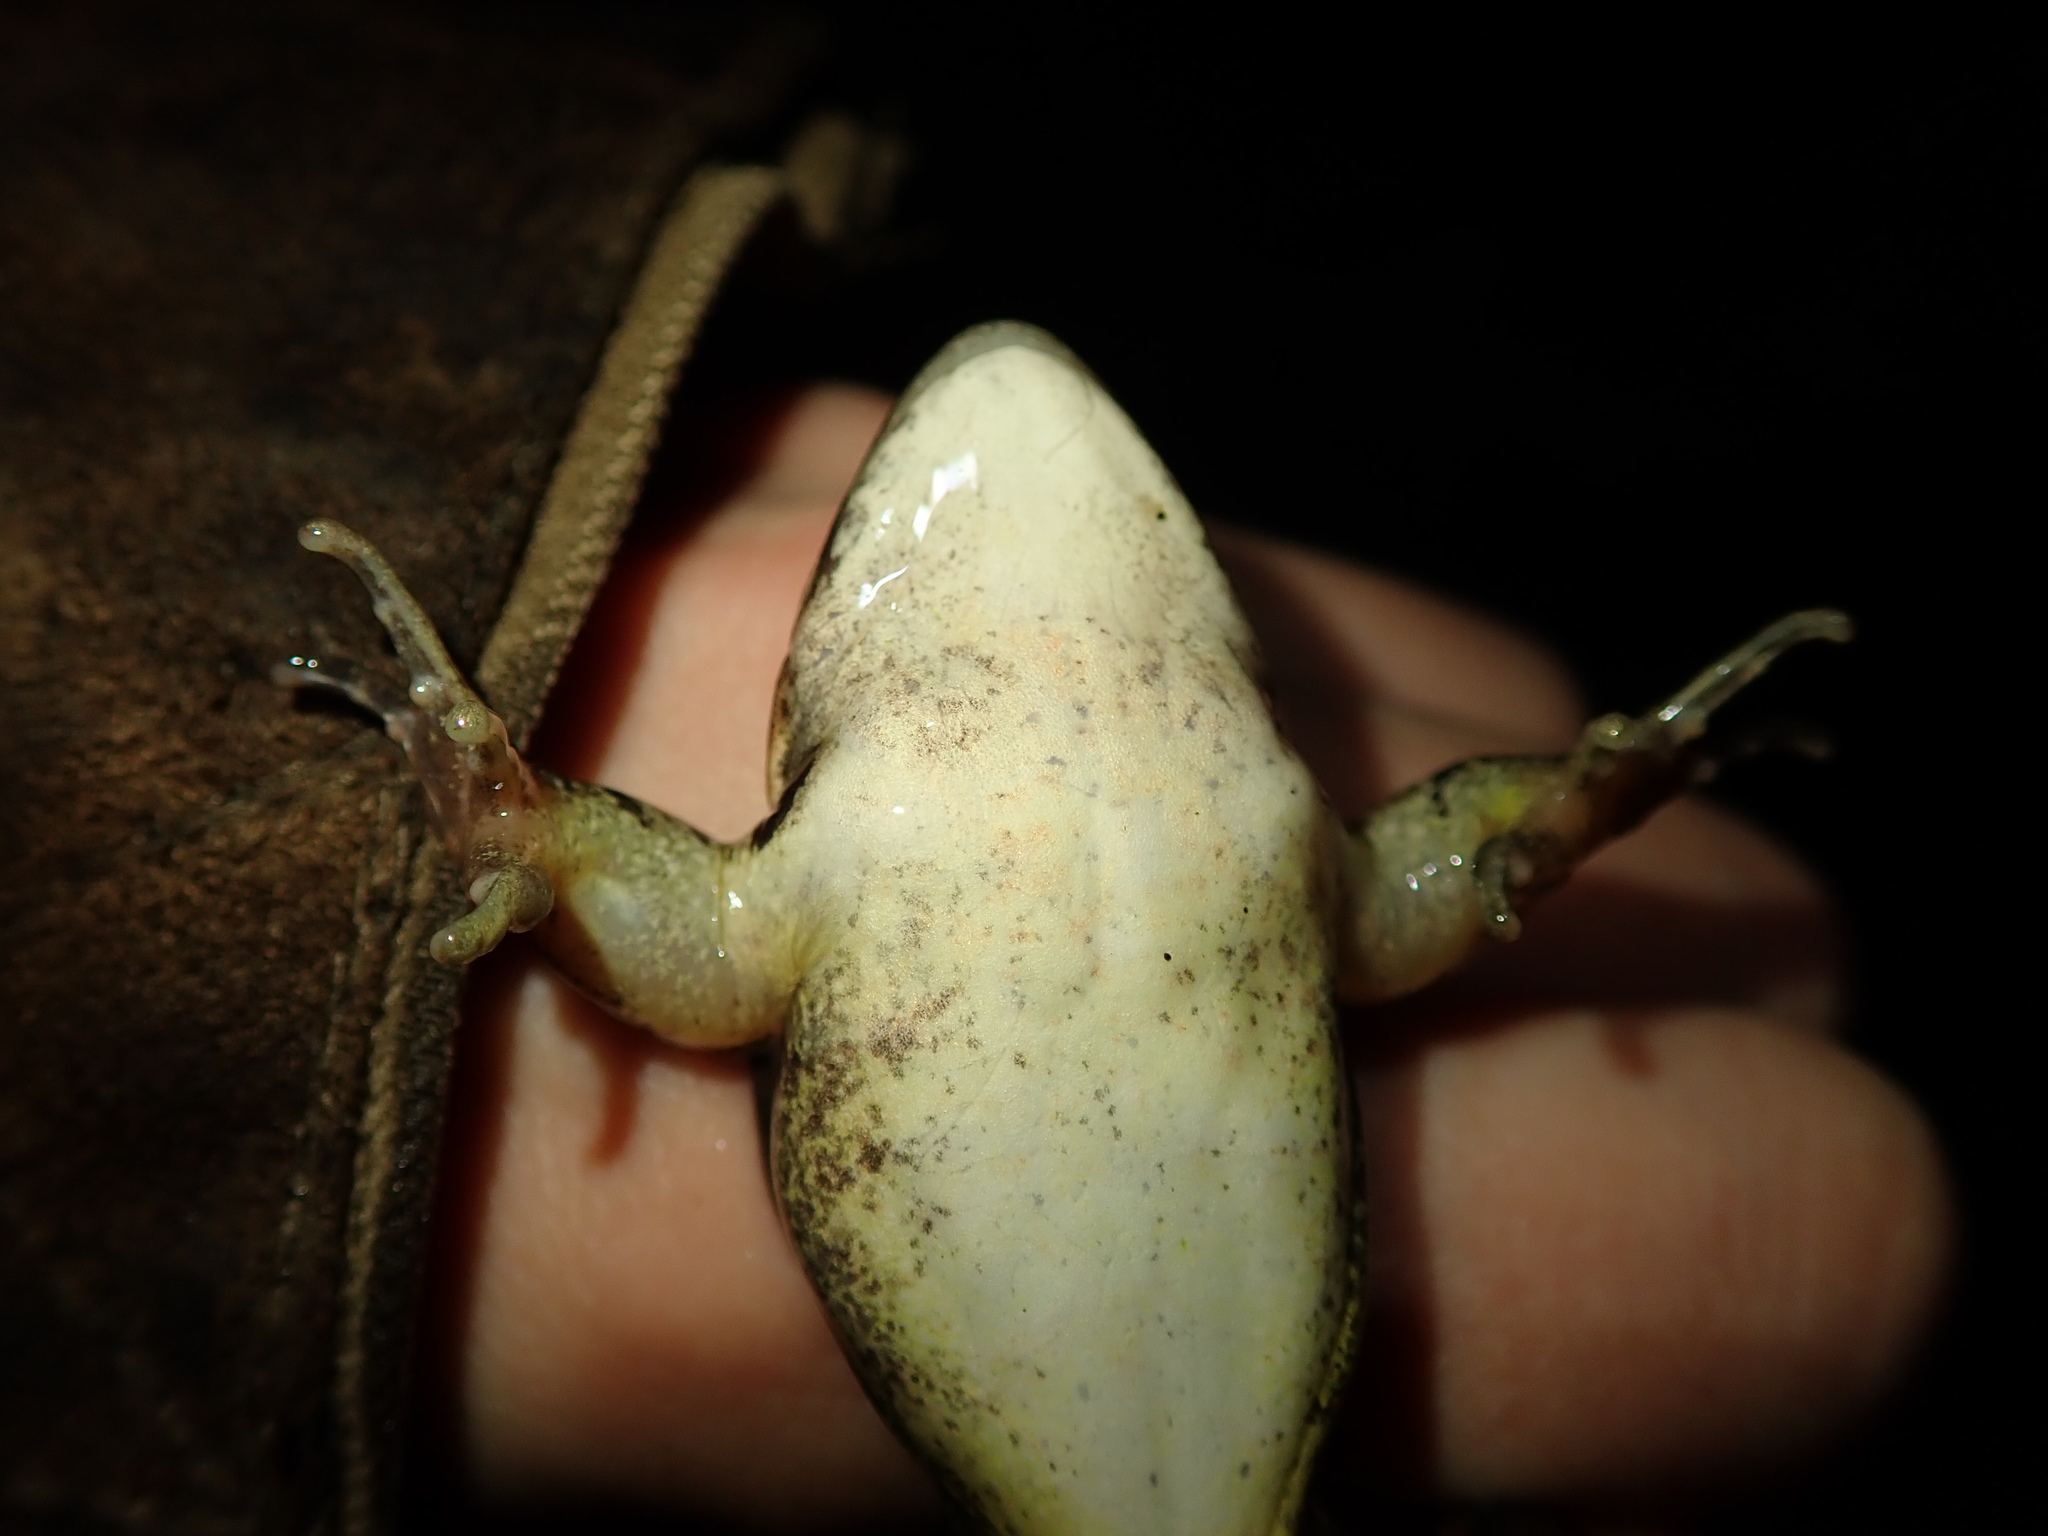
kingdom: Animalia
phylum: Chordata
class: Amphibia
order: Anura
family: Ranidae
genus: Rana
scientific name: Rana dalmatina
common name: Agile frog
